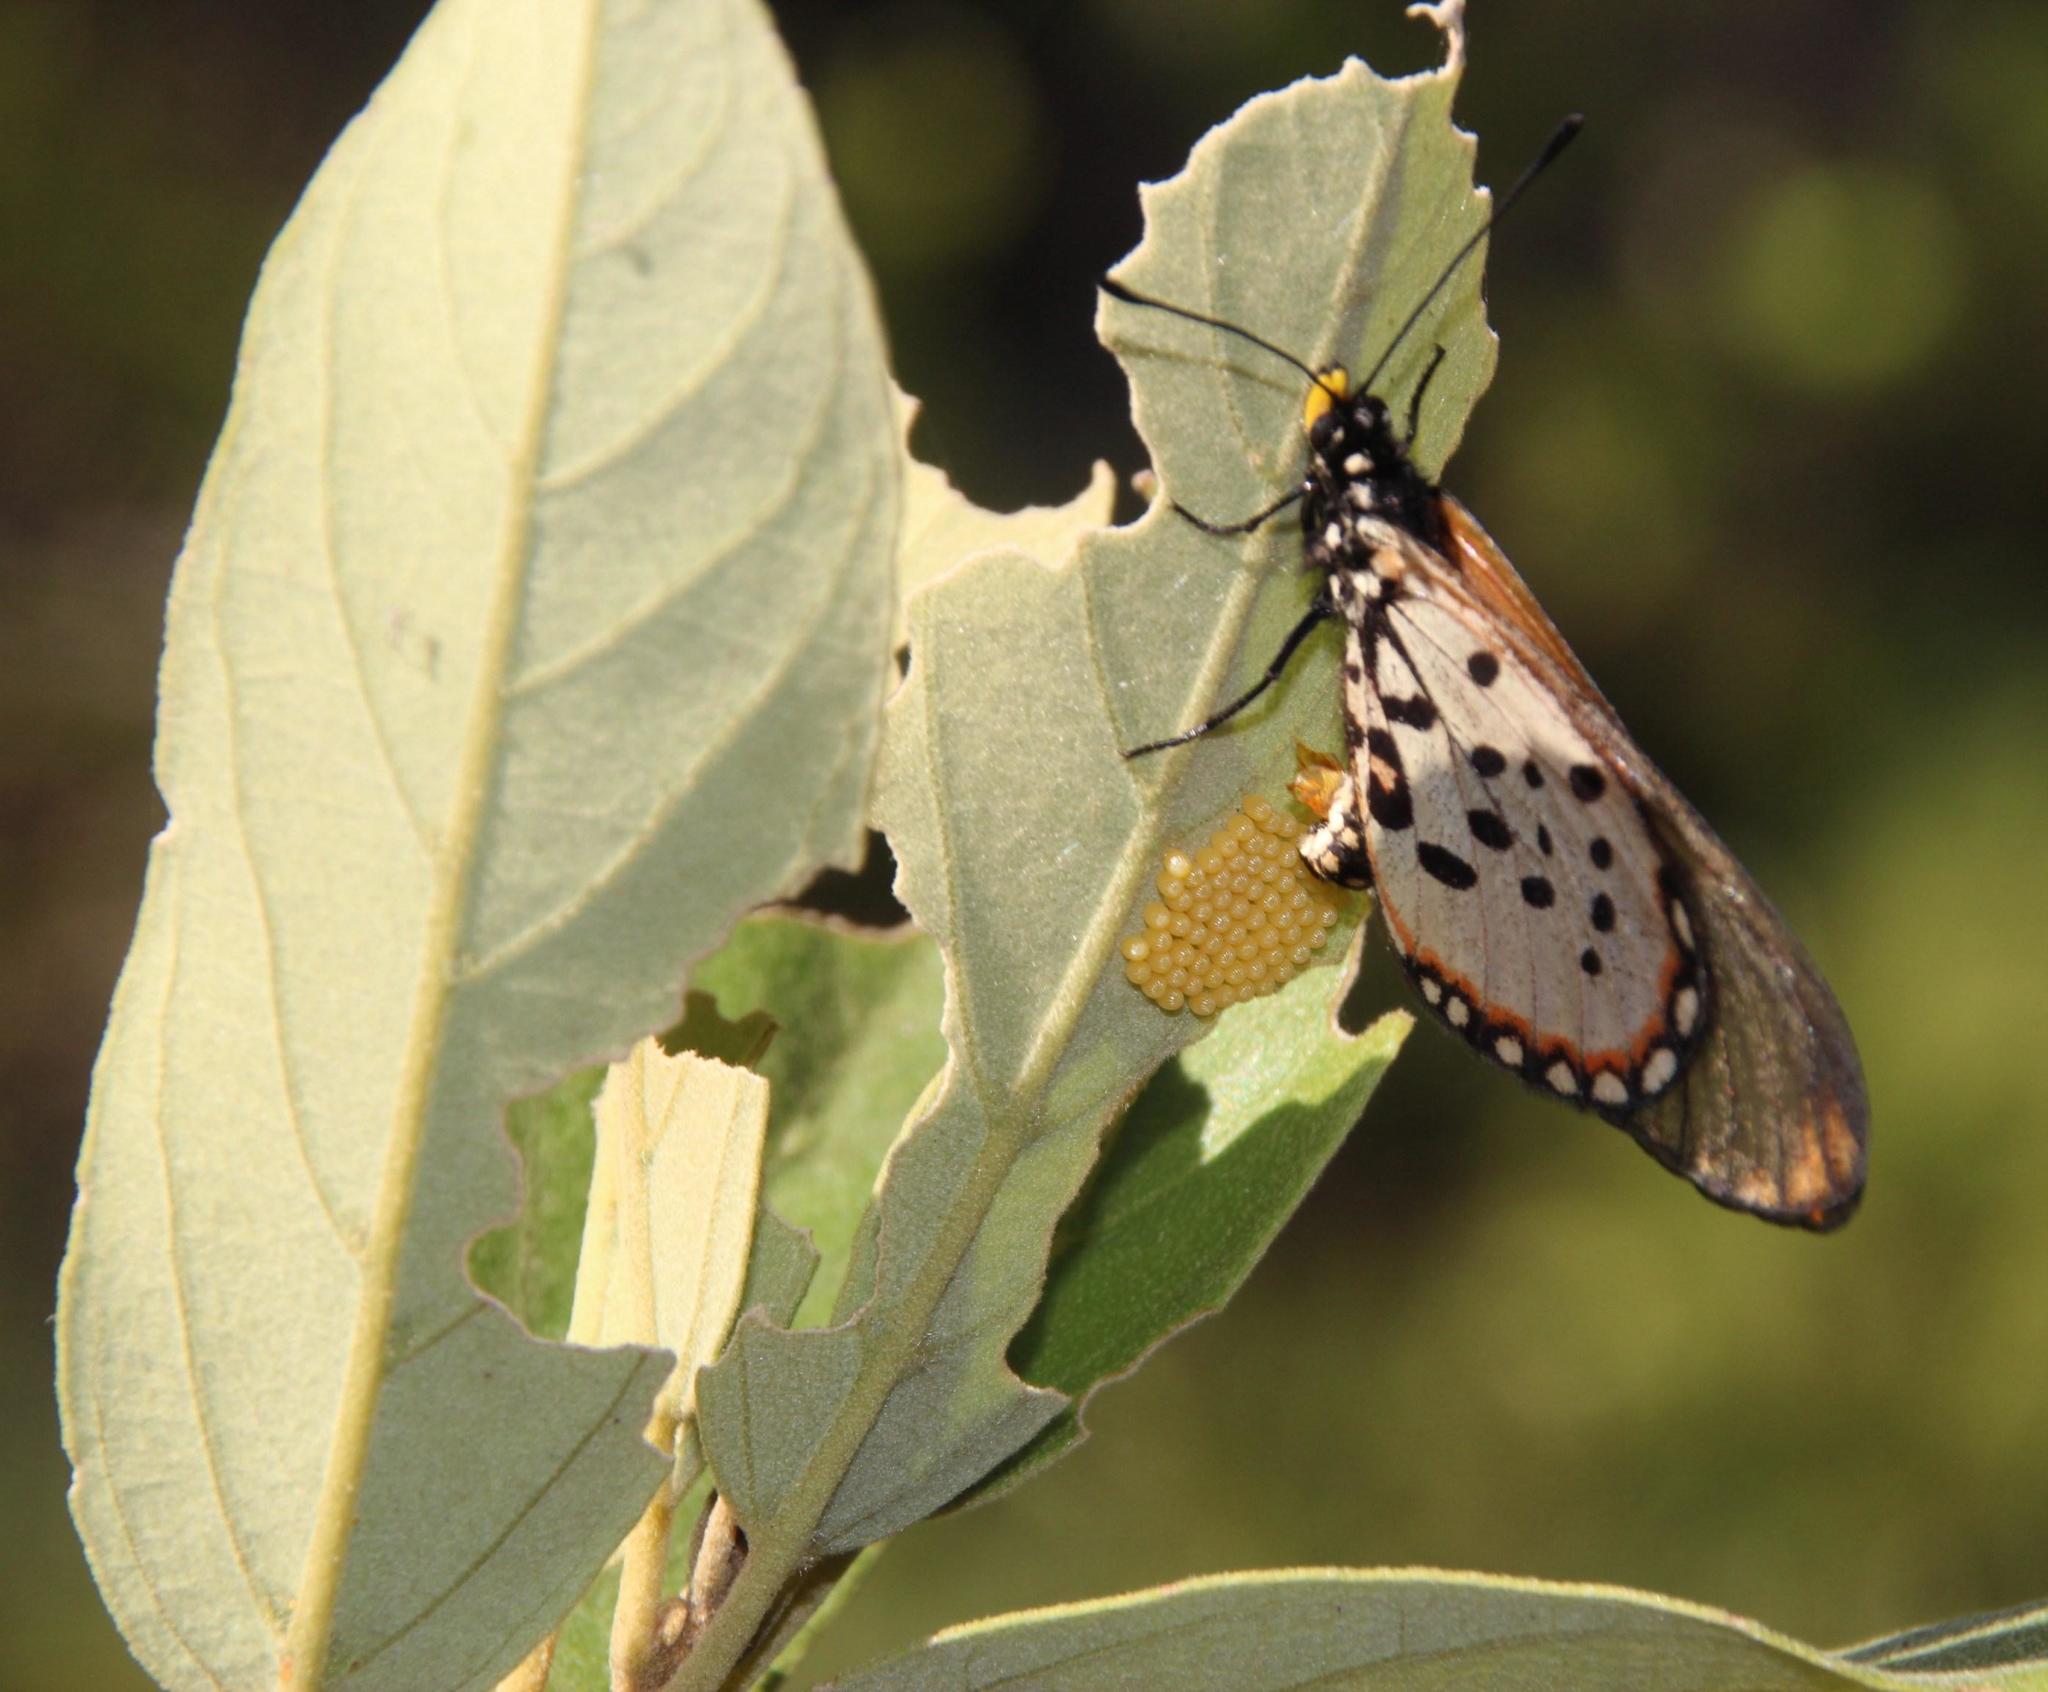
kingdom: Plantae
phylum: Tracheophyta
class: Magnoliopsida
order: Malpighiales
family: Achariaceae
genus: Kiggelaria
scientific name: Kiggelaria africana
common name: Wild peach
